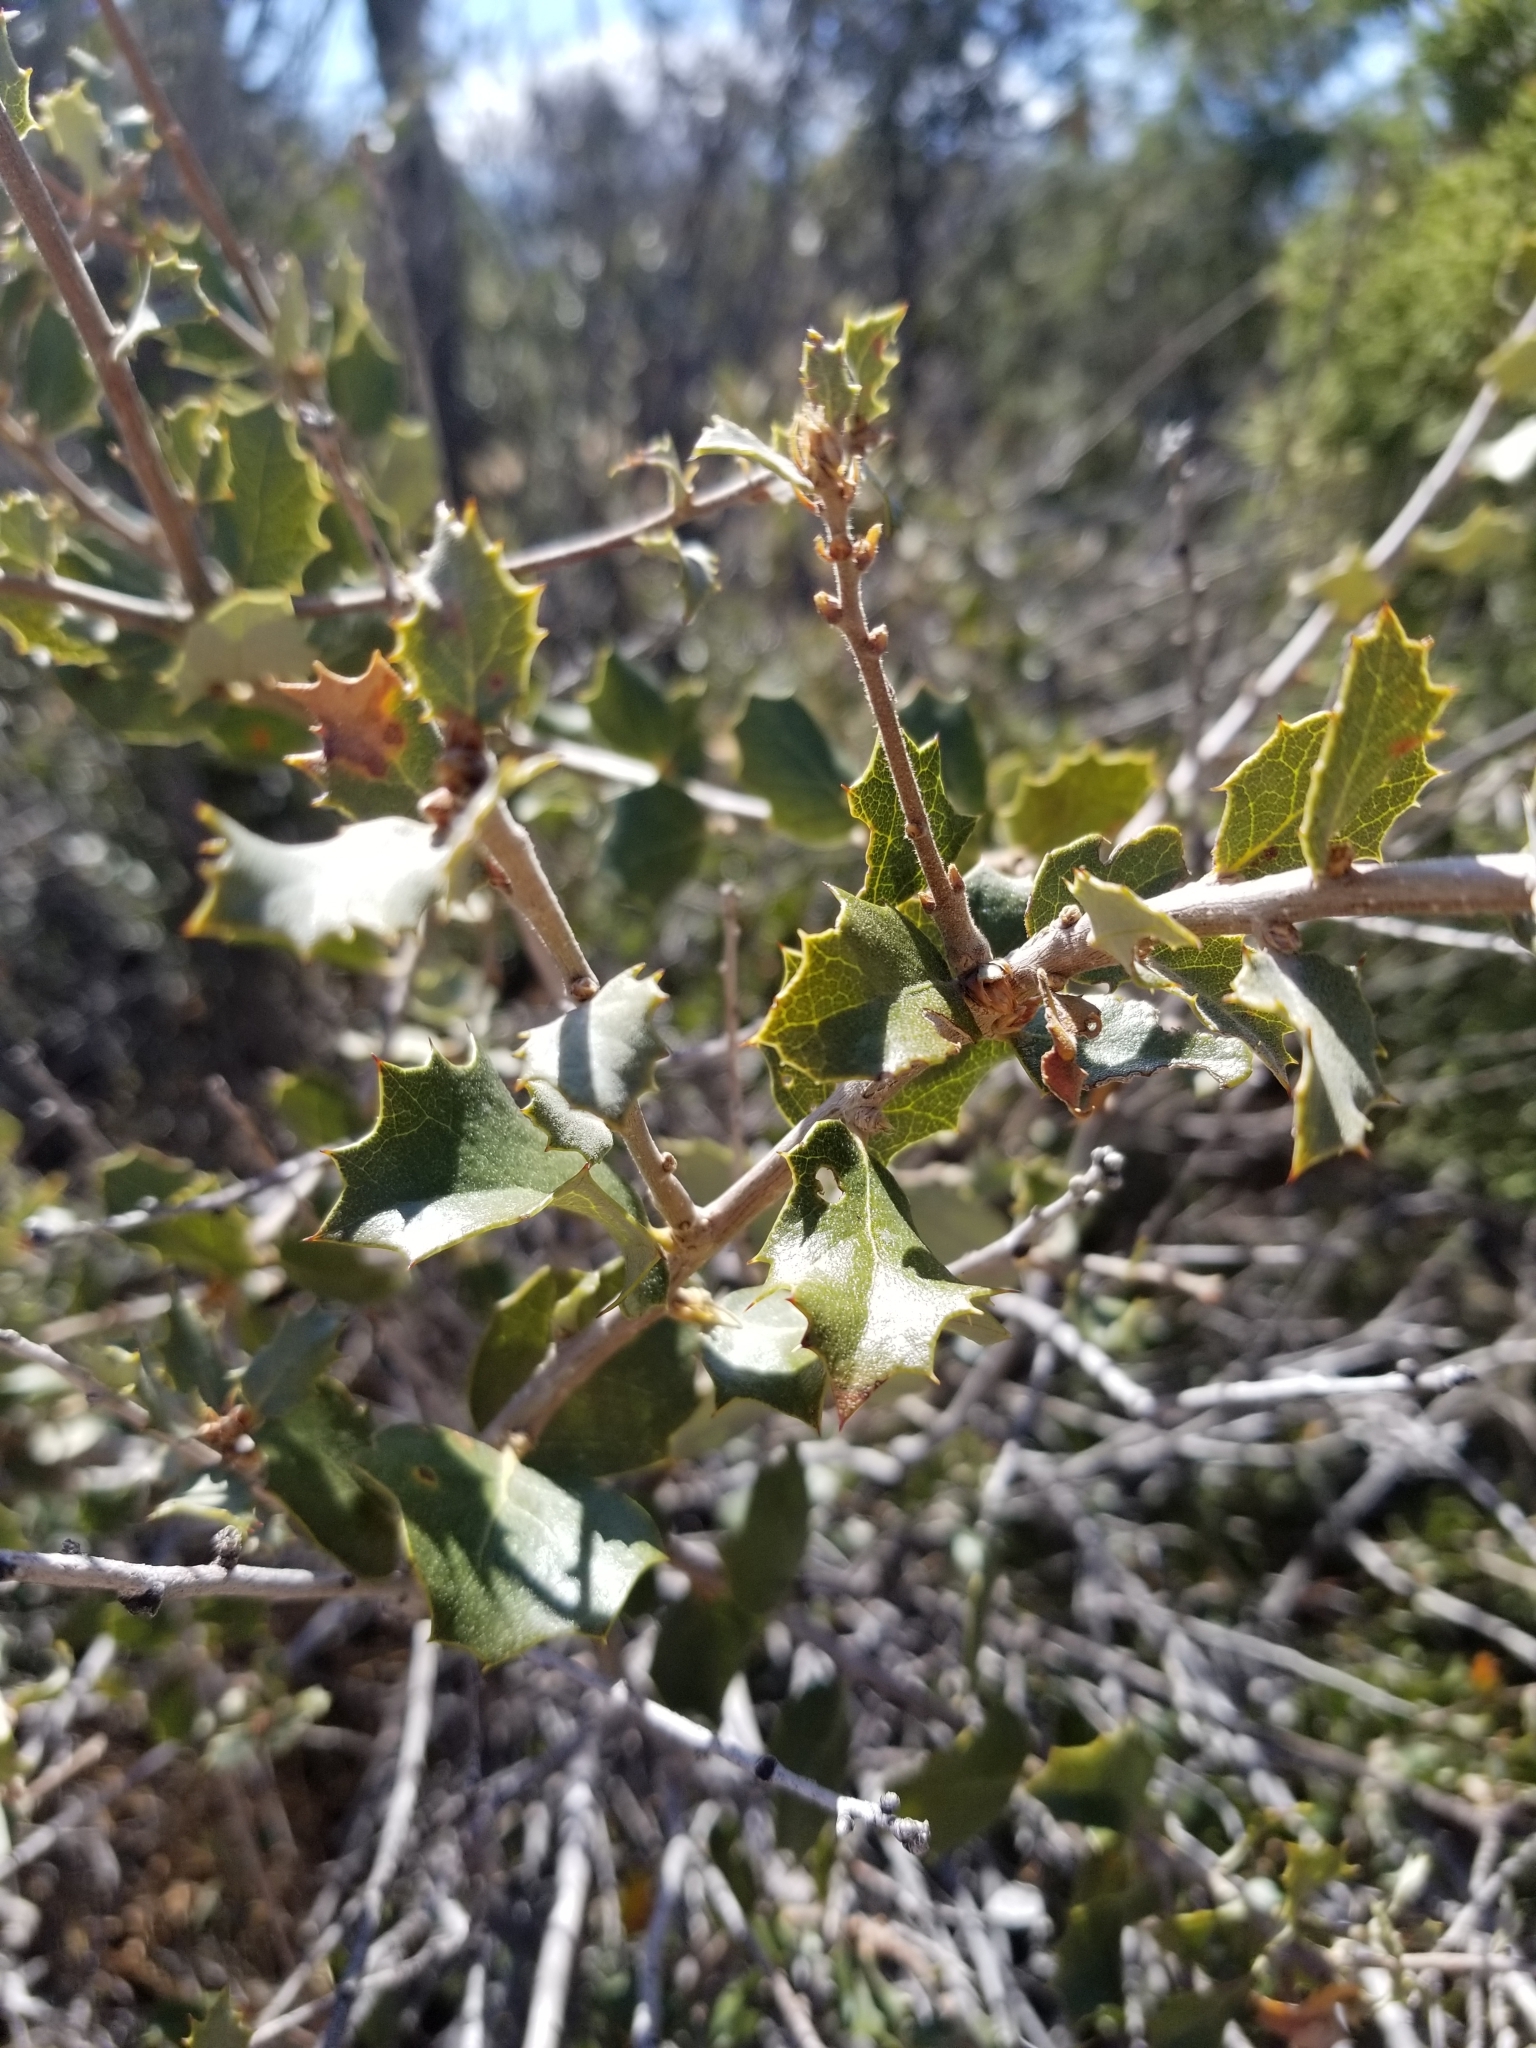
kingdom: Plantae
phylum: Tracheophyta
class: Magnoliopsida
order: Fagales
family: Fagaceae
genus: Quercus
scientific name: Quercus cornelius-mulleri
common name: Muller oak
